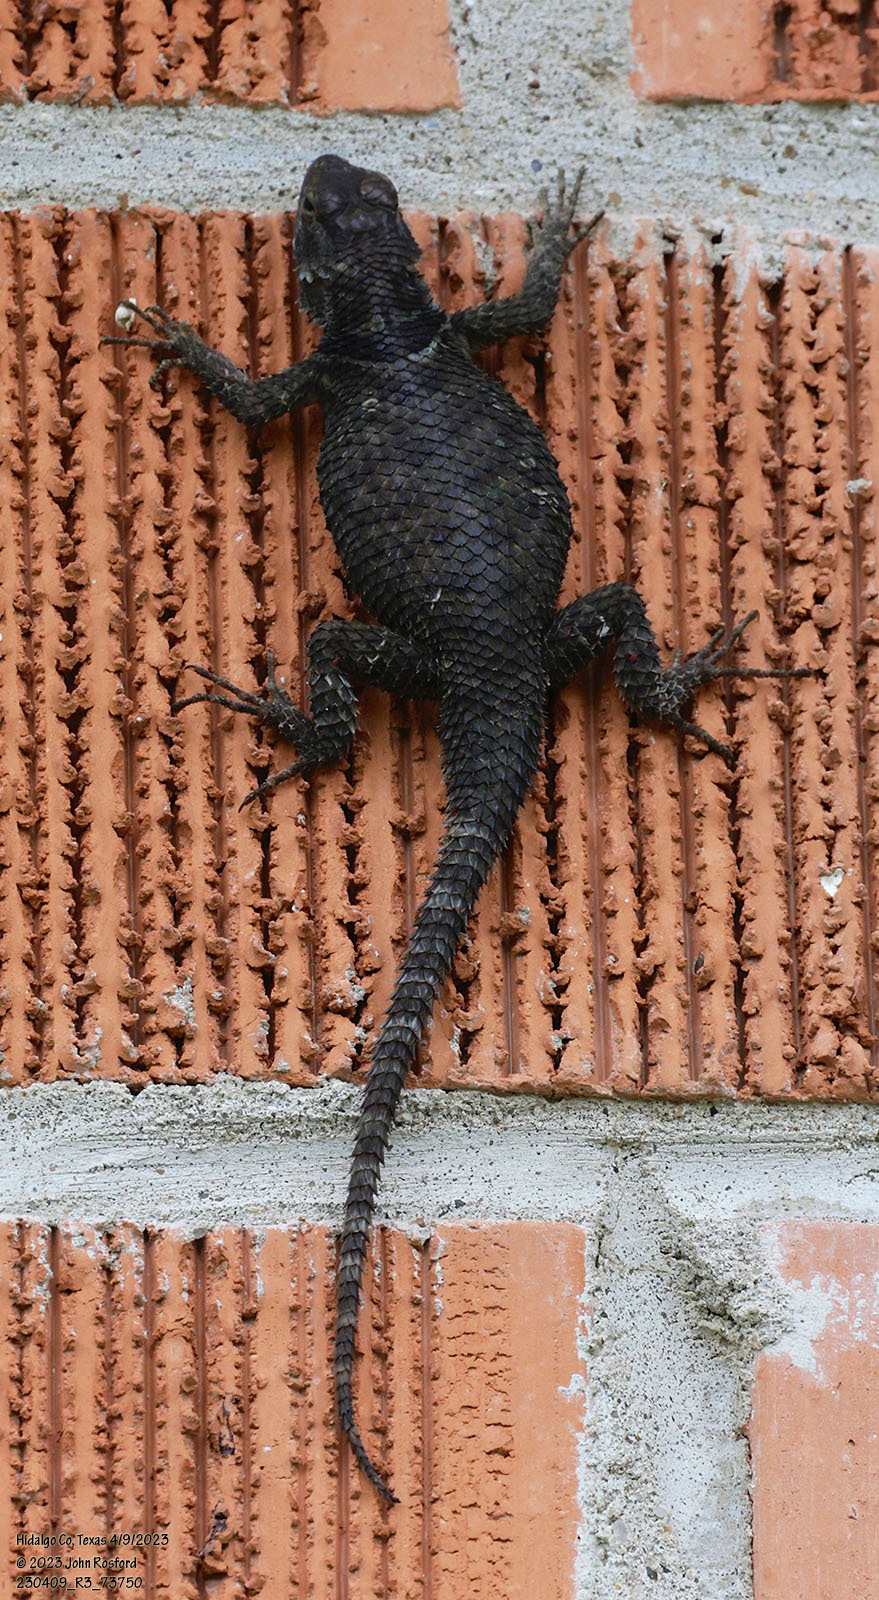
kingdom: Animalia
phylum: Chordata
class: Squamata
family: Phrynosomatidae
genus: Sceloporus
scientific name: Sceloporus cyanogenys
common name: Blue spiny lizard
